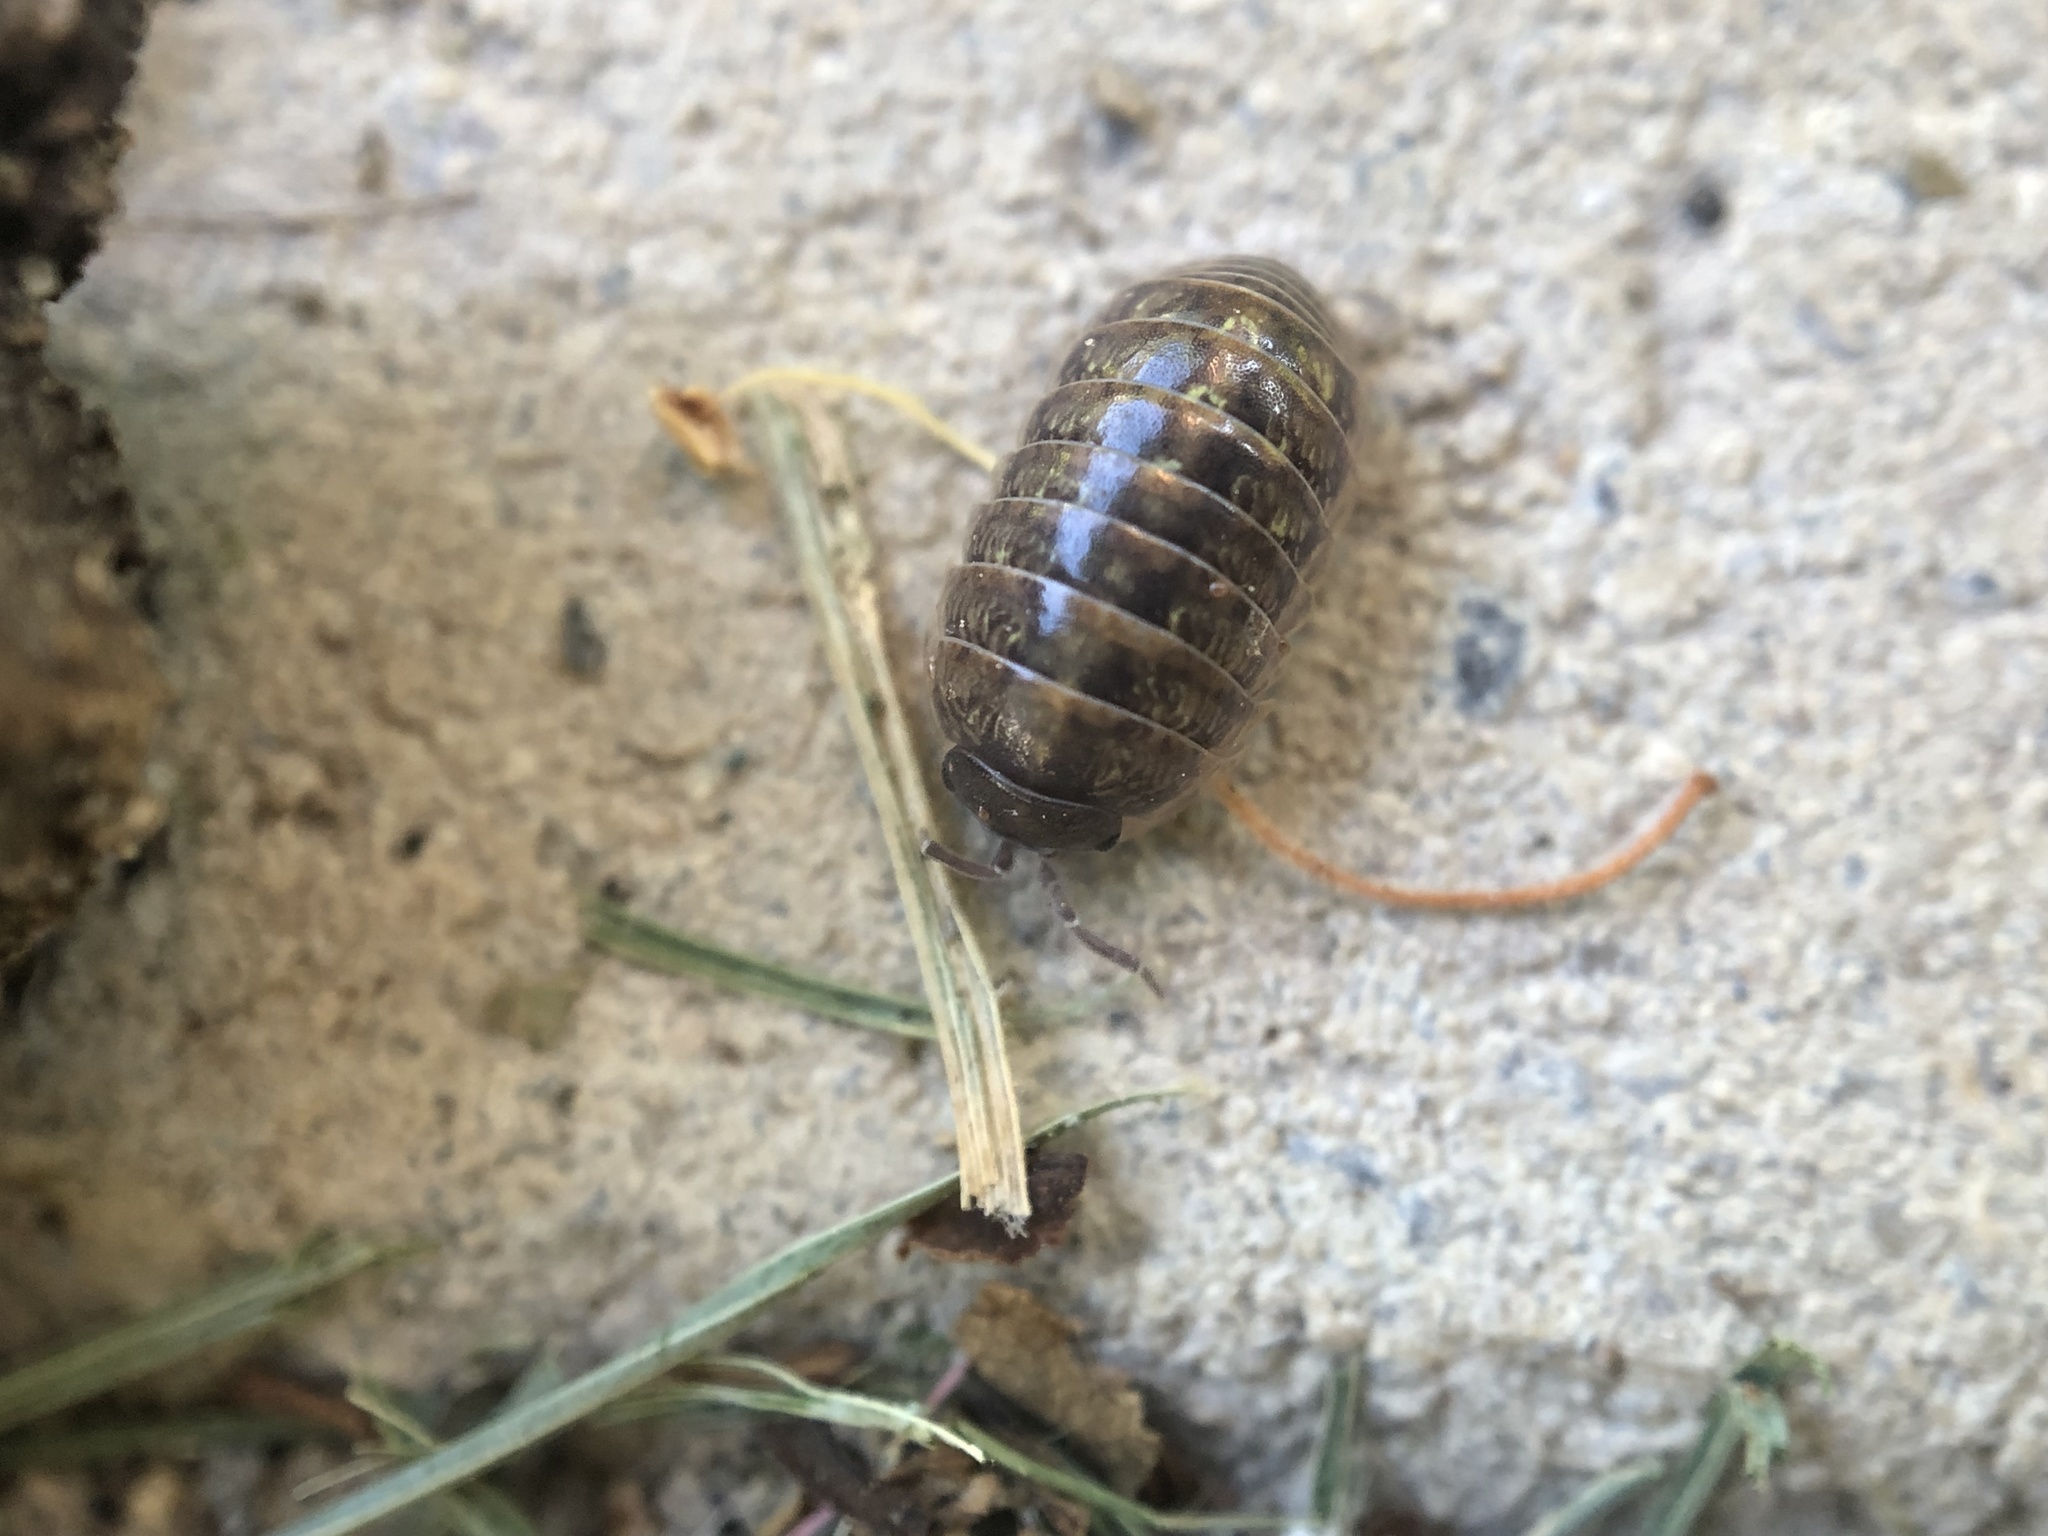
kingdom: Animalia
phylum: Arthropoda
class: Malacostraca
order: Isopoda
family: Armadillidiidae
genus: Armadillidium
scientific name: Armadillidium vulgare
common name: Common pill woodlouse
